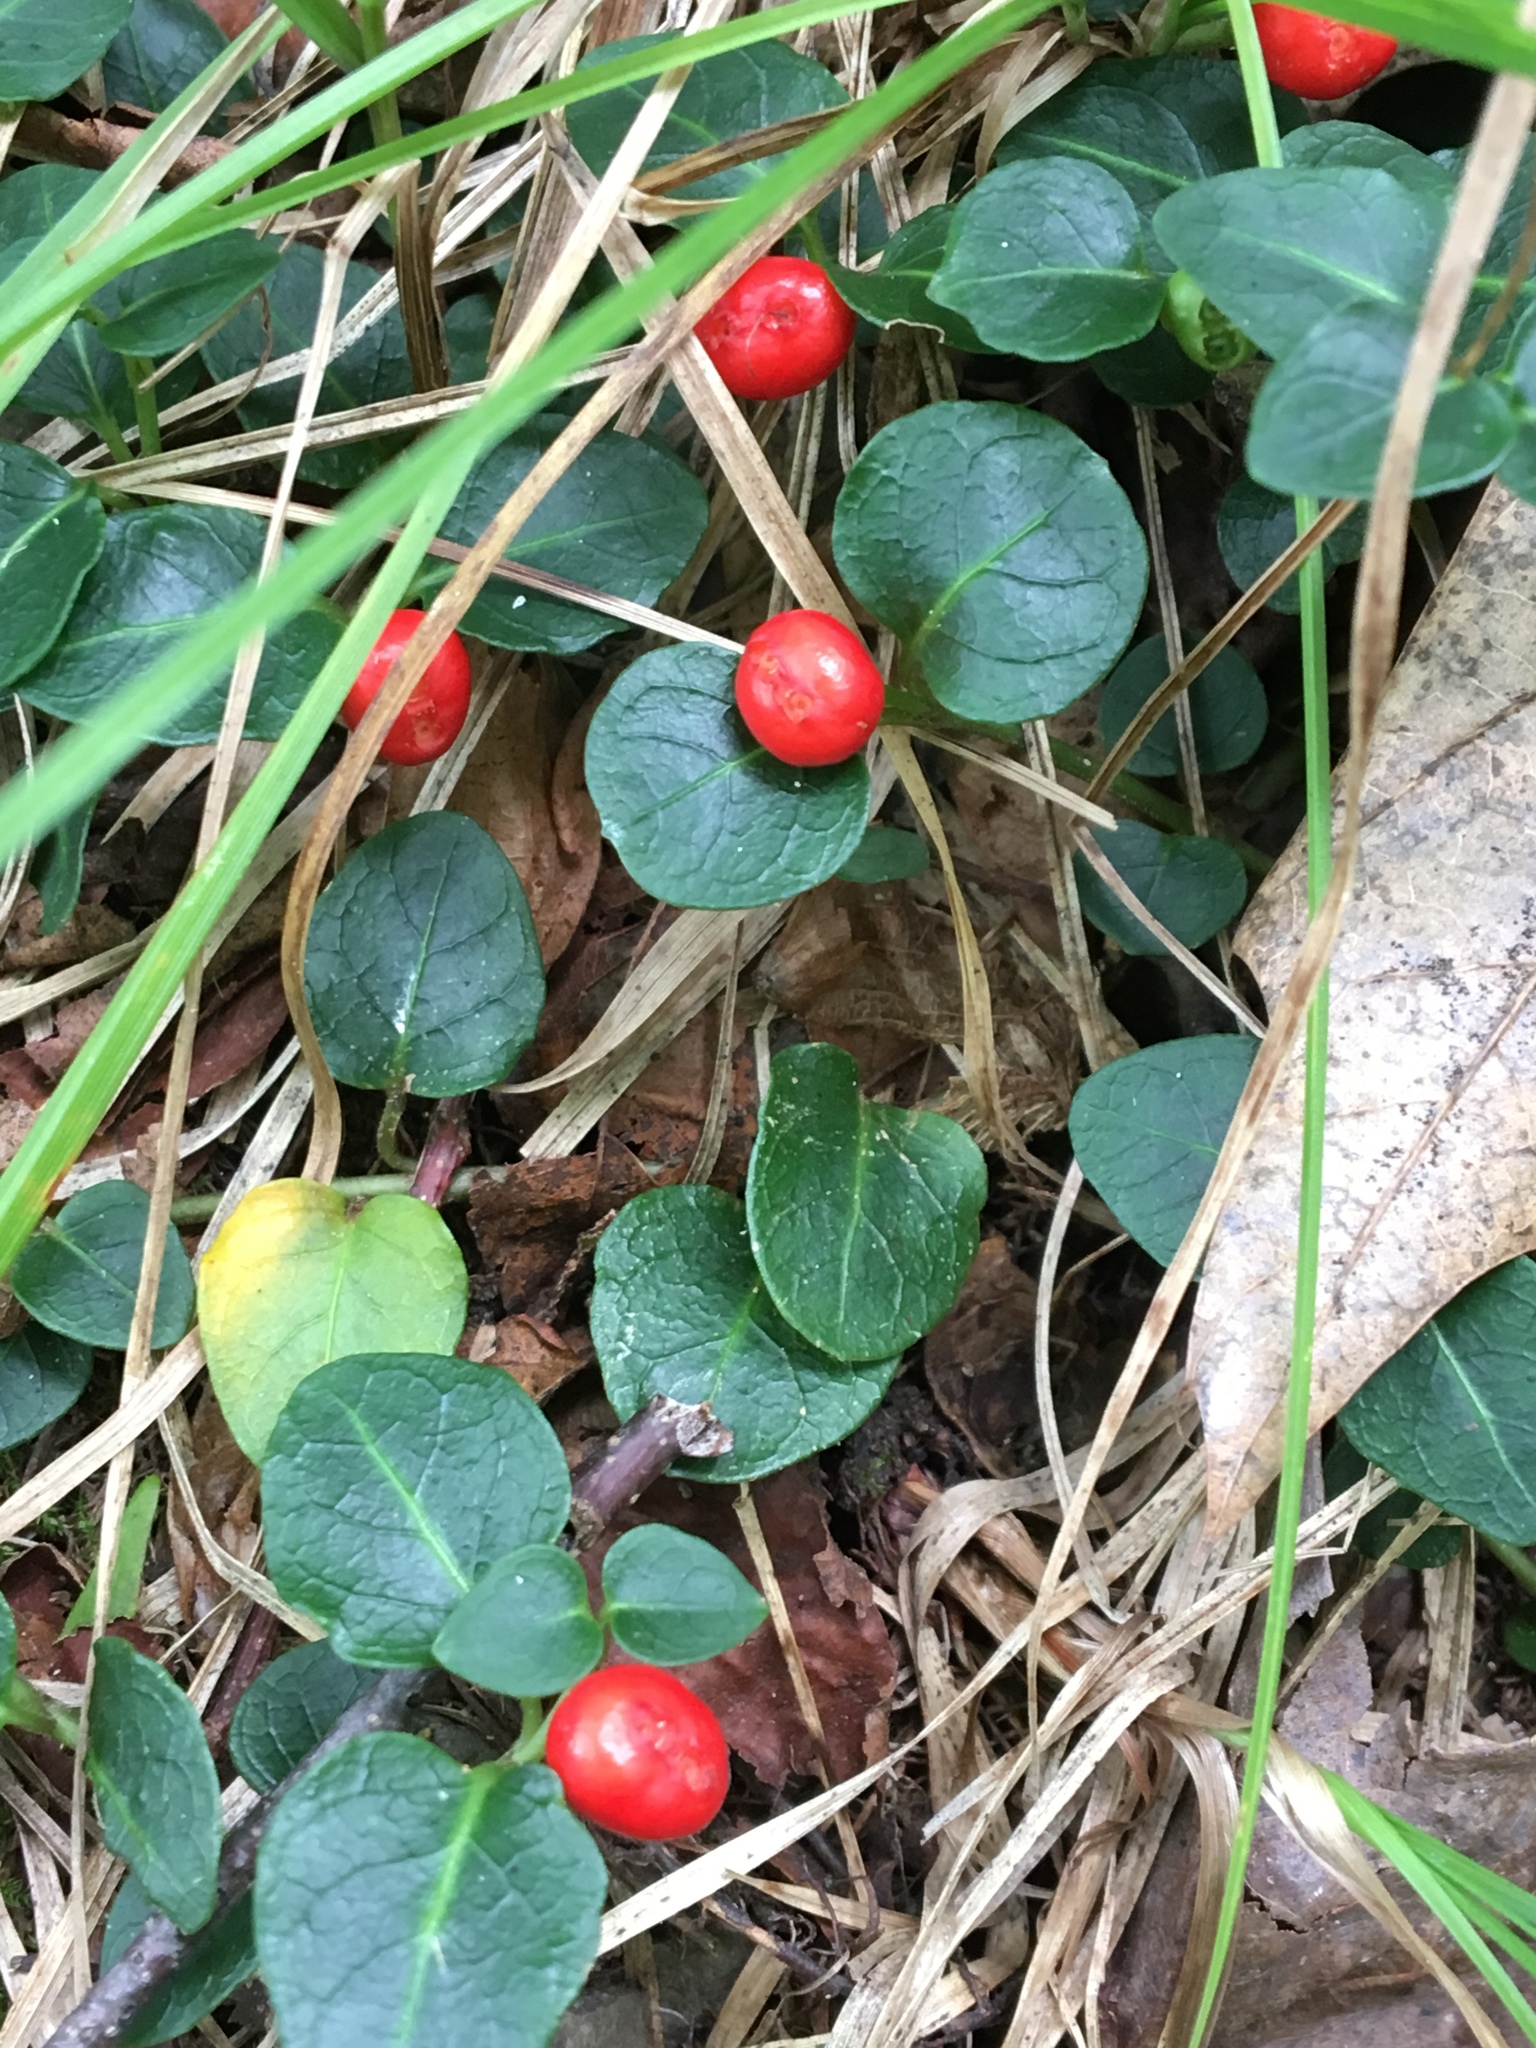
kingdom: Plantae
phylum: Tracheophyta
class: Magnoliopsida
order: Gentianales
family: Rubiaceae
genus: Mitchella
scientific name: Mitchella repens
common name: Partridge-berry
